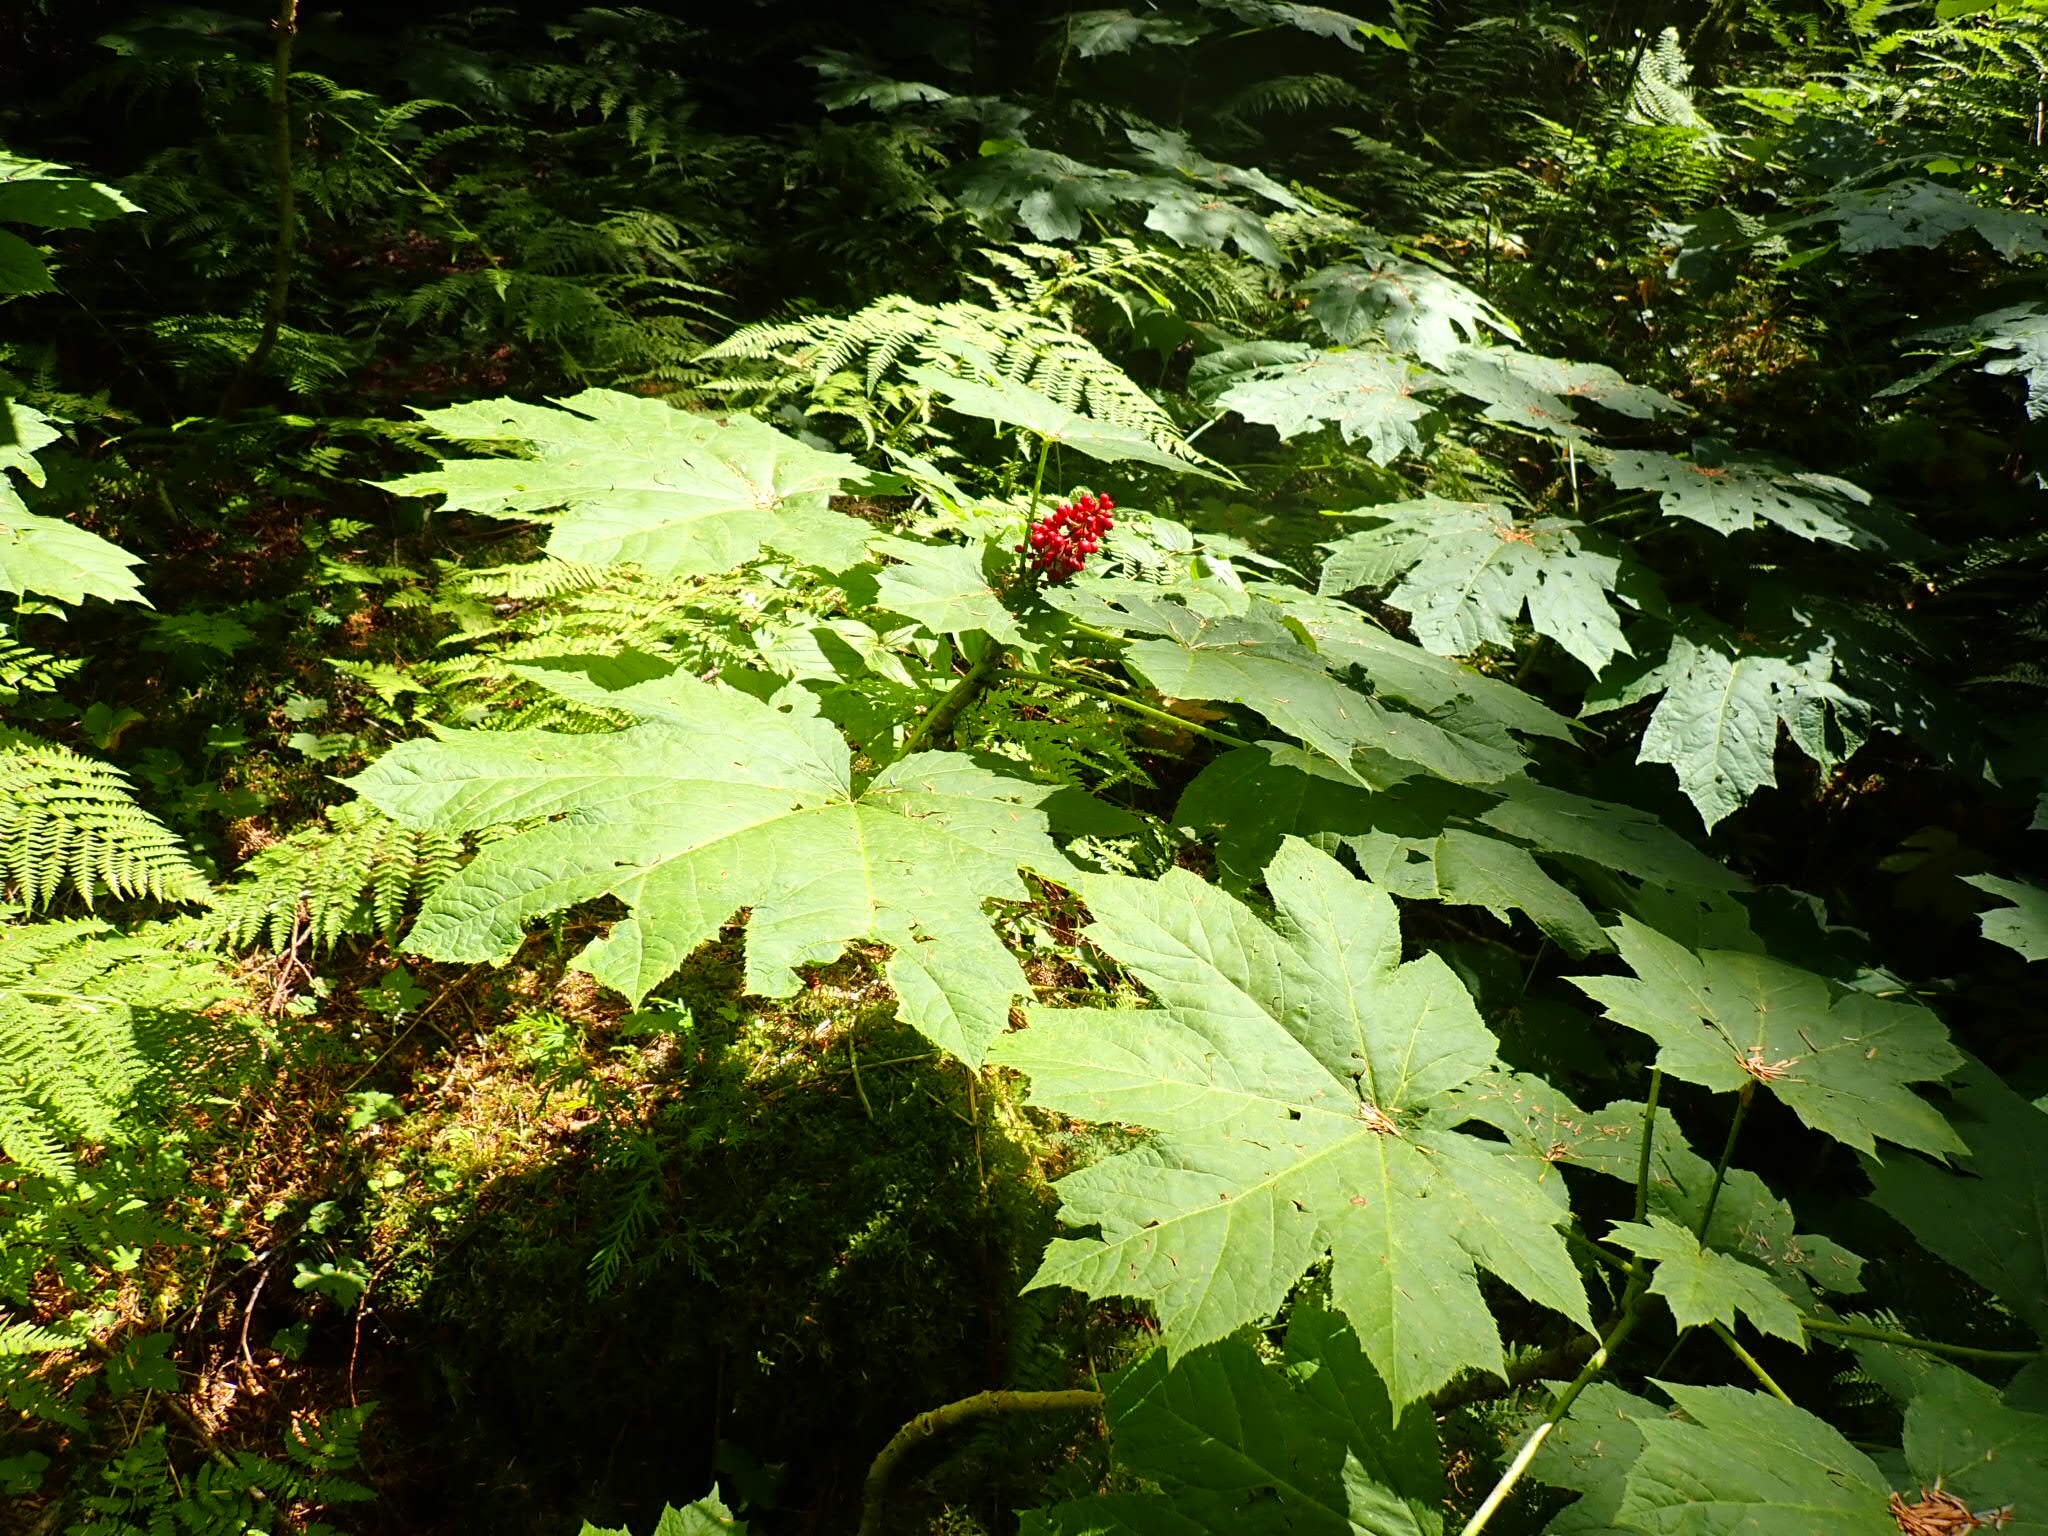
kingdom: Plantae
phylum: Tracheophyta
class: Magnoliopsida
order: Apiales
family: Araliaceae
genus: Oplopanax
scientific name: Oplopanax horridus
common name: Devil's walking-stick
